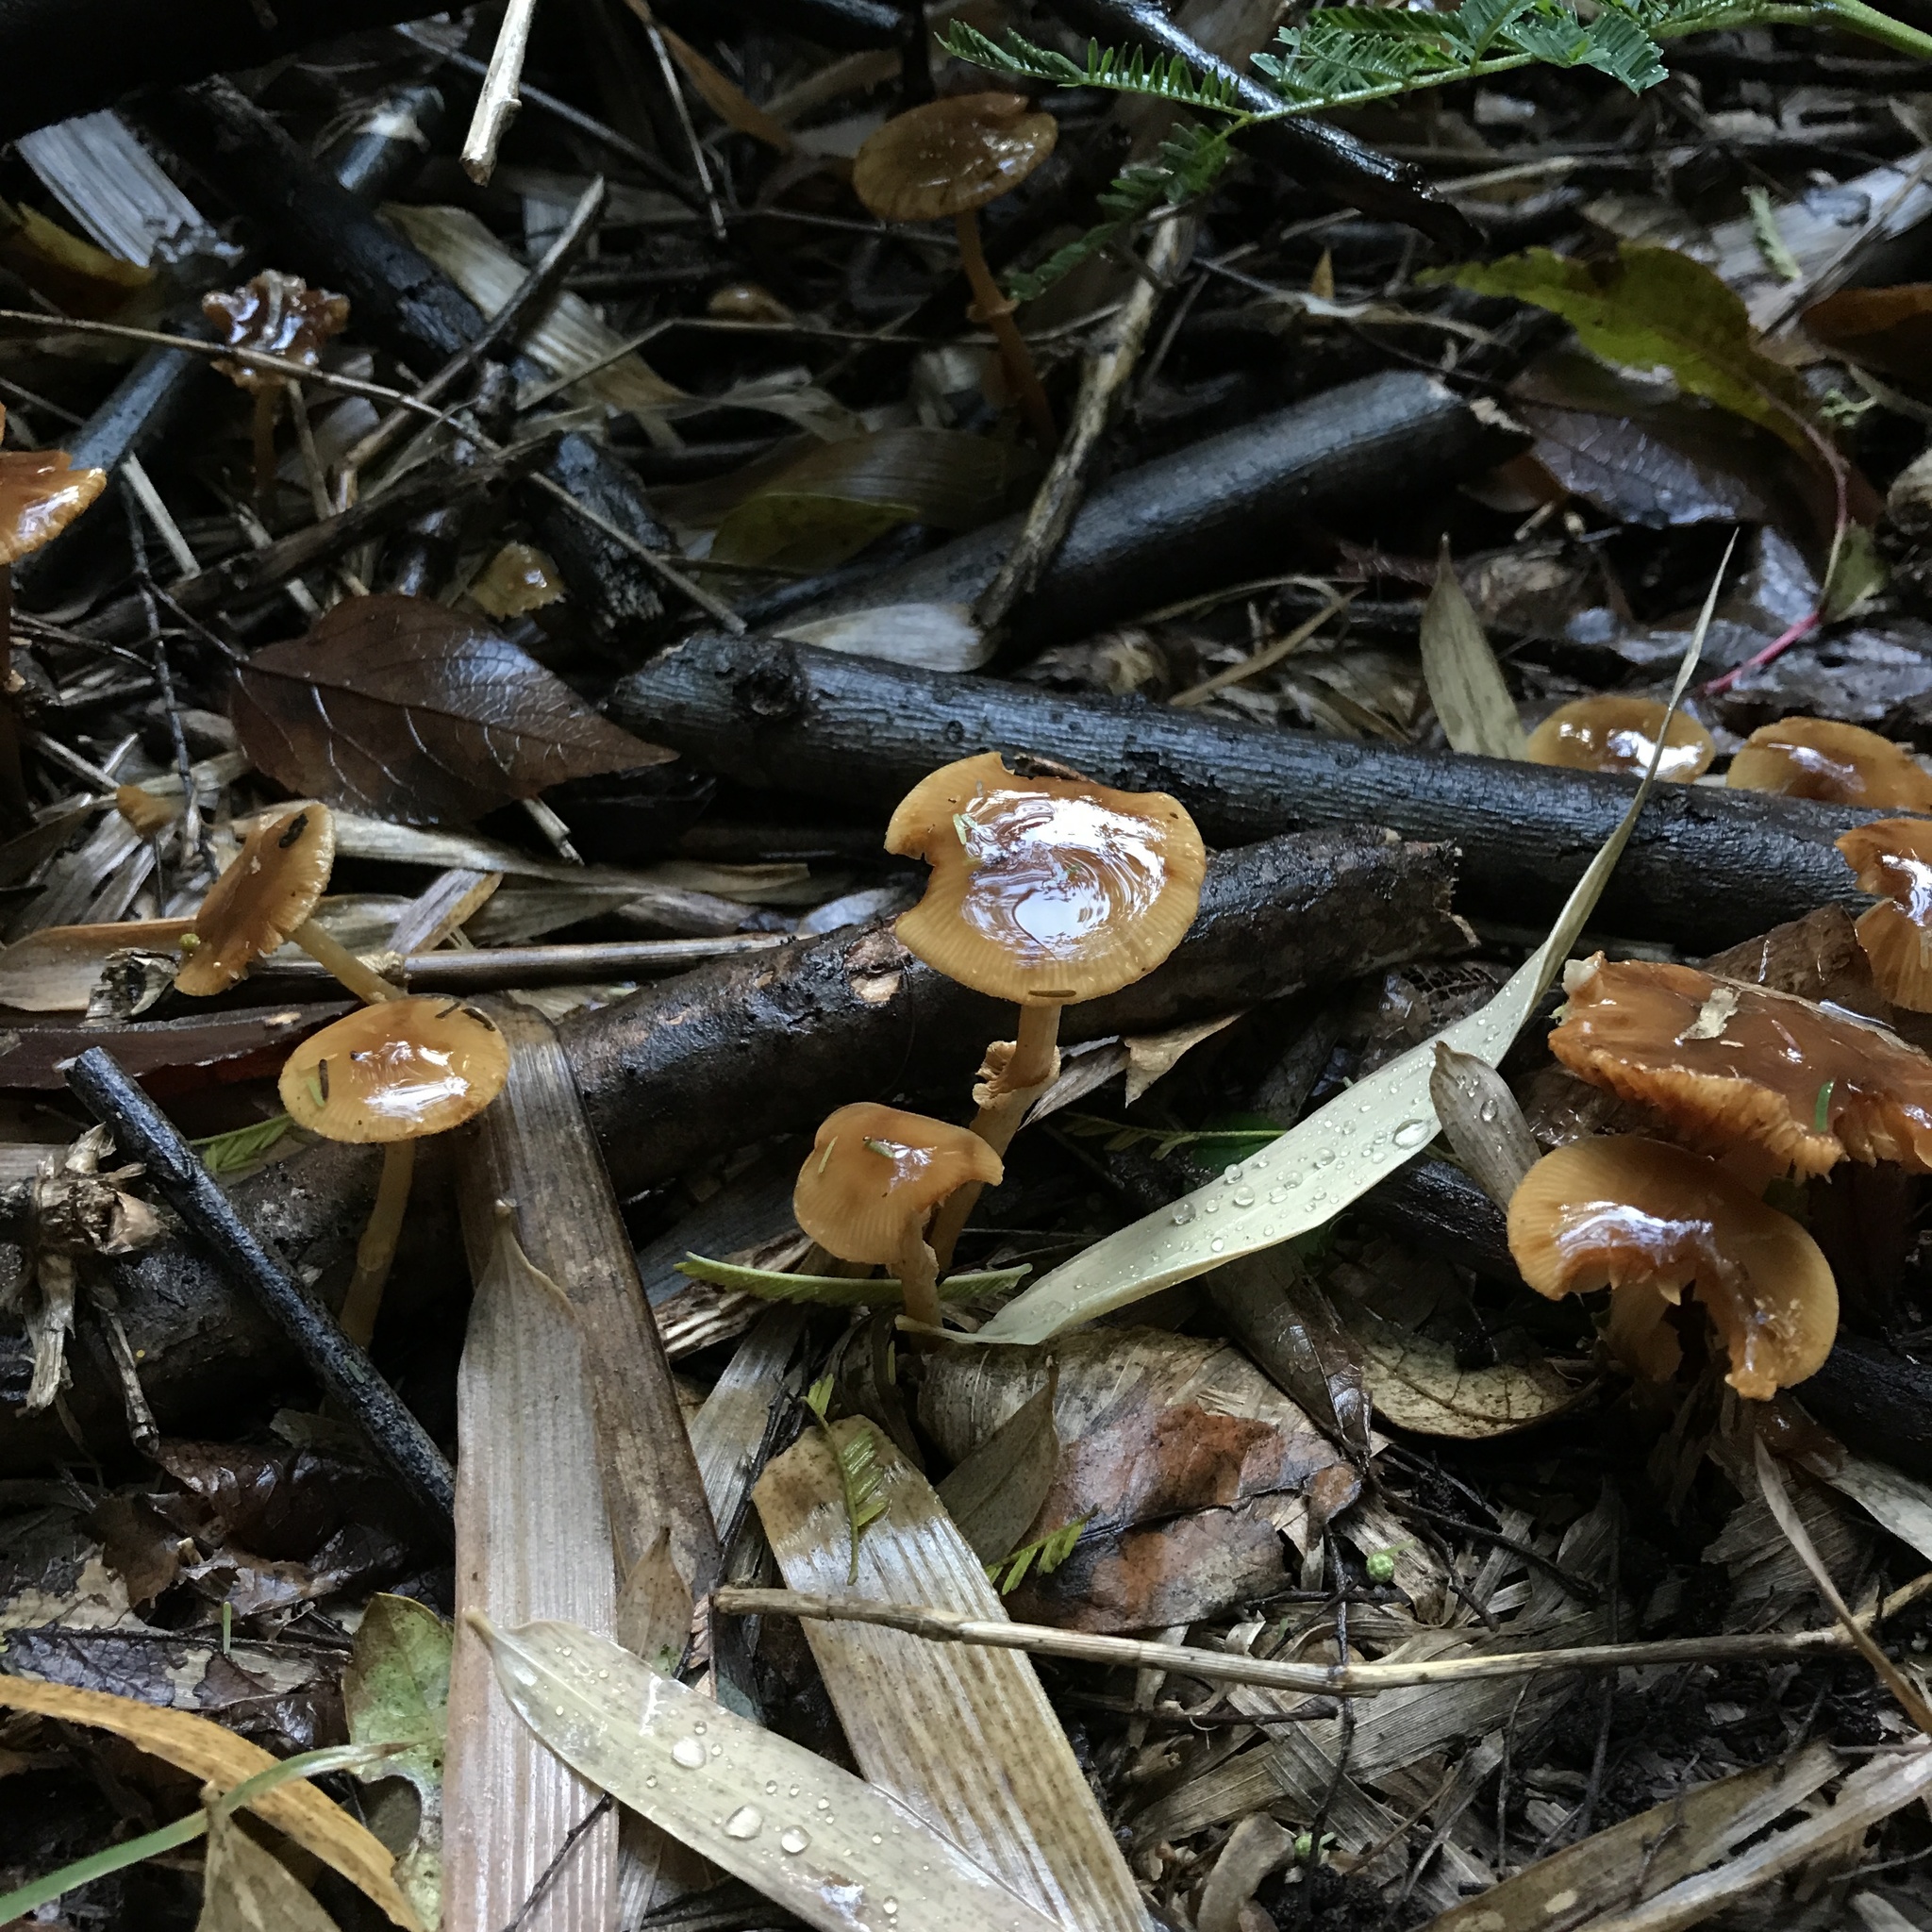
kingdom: Fungi
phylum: Basidiomycota
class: Agaricomycetes
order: Agaricales
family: Bolbitiaceae
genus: Descolea
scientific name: Descolea antarctica
